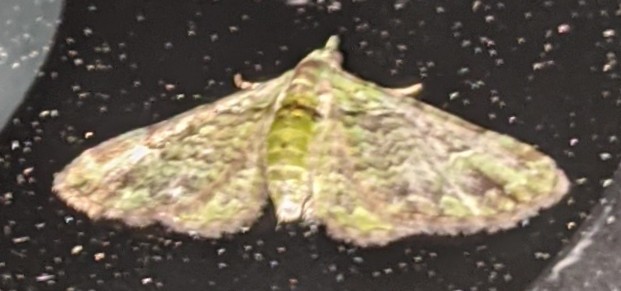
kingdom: Animalia
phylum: Arthropoda
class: Insecta
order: Lepidoptera
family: Geometridae
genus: Pasiphila
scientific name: Pasiphila rectangulata
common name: Green pug
